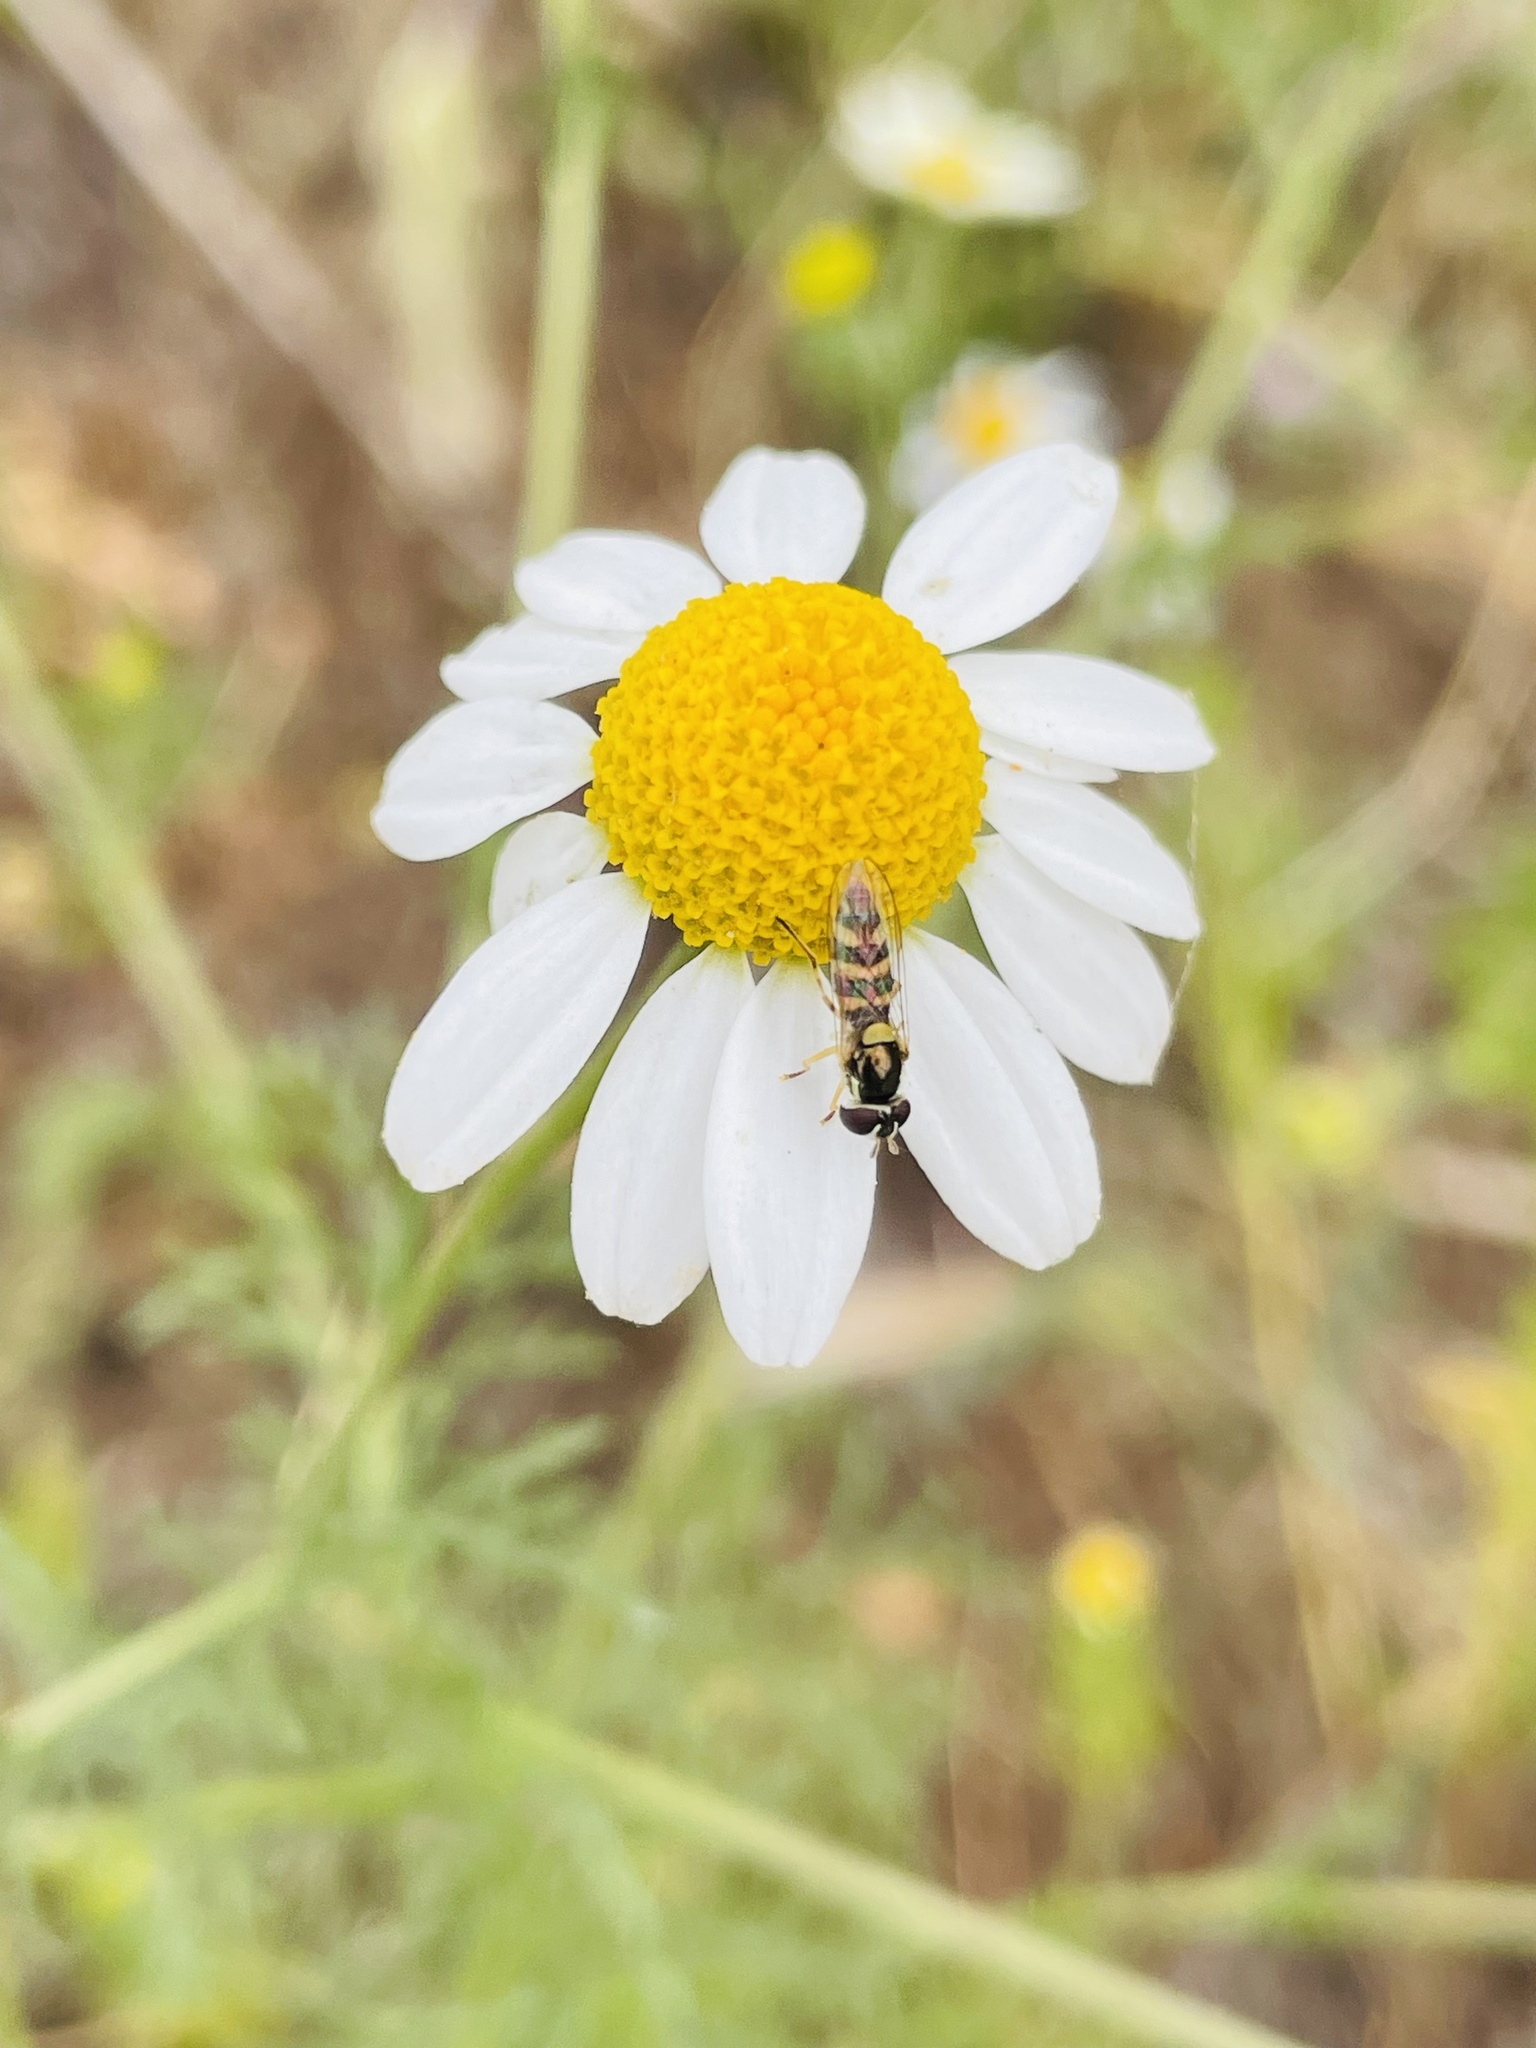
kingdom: Animalia
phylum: Arthropoda
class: Insecta
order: Diptera
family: Syrphidae
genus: Allograpta
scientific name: Allograpta exotica
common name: Syrphid fly
